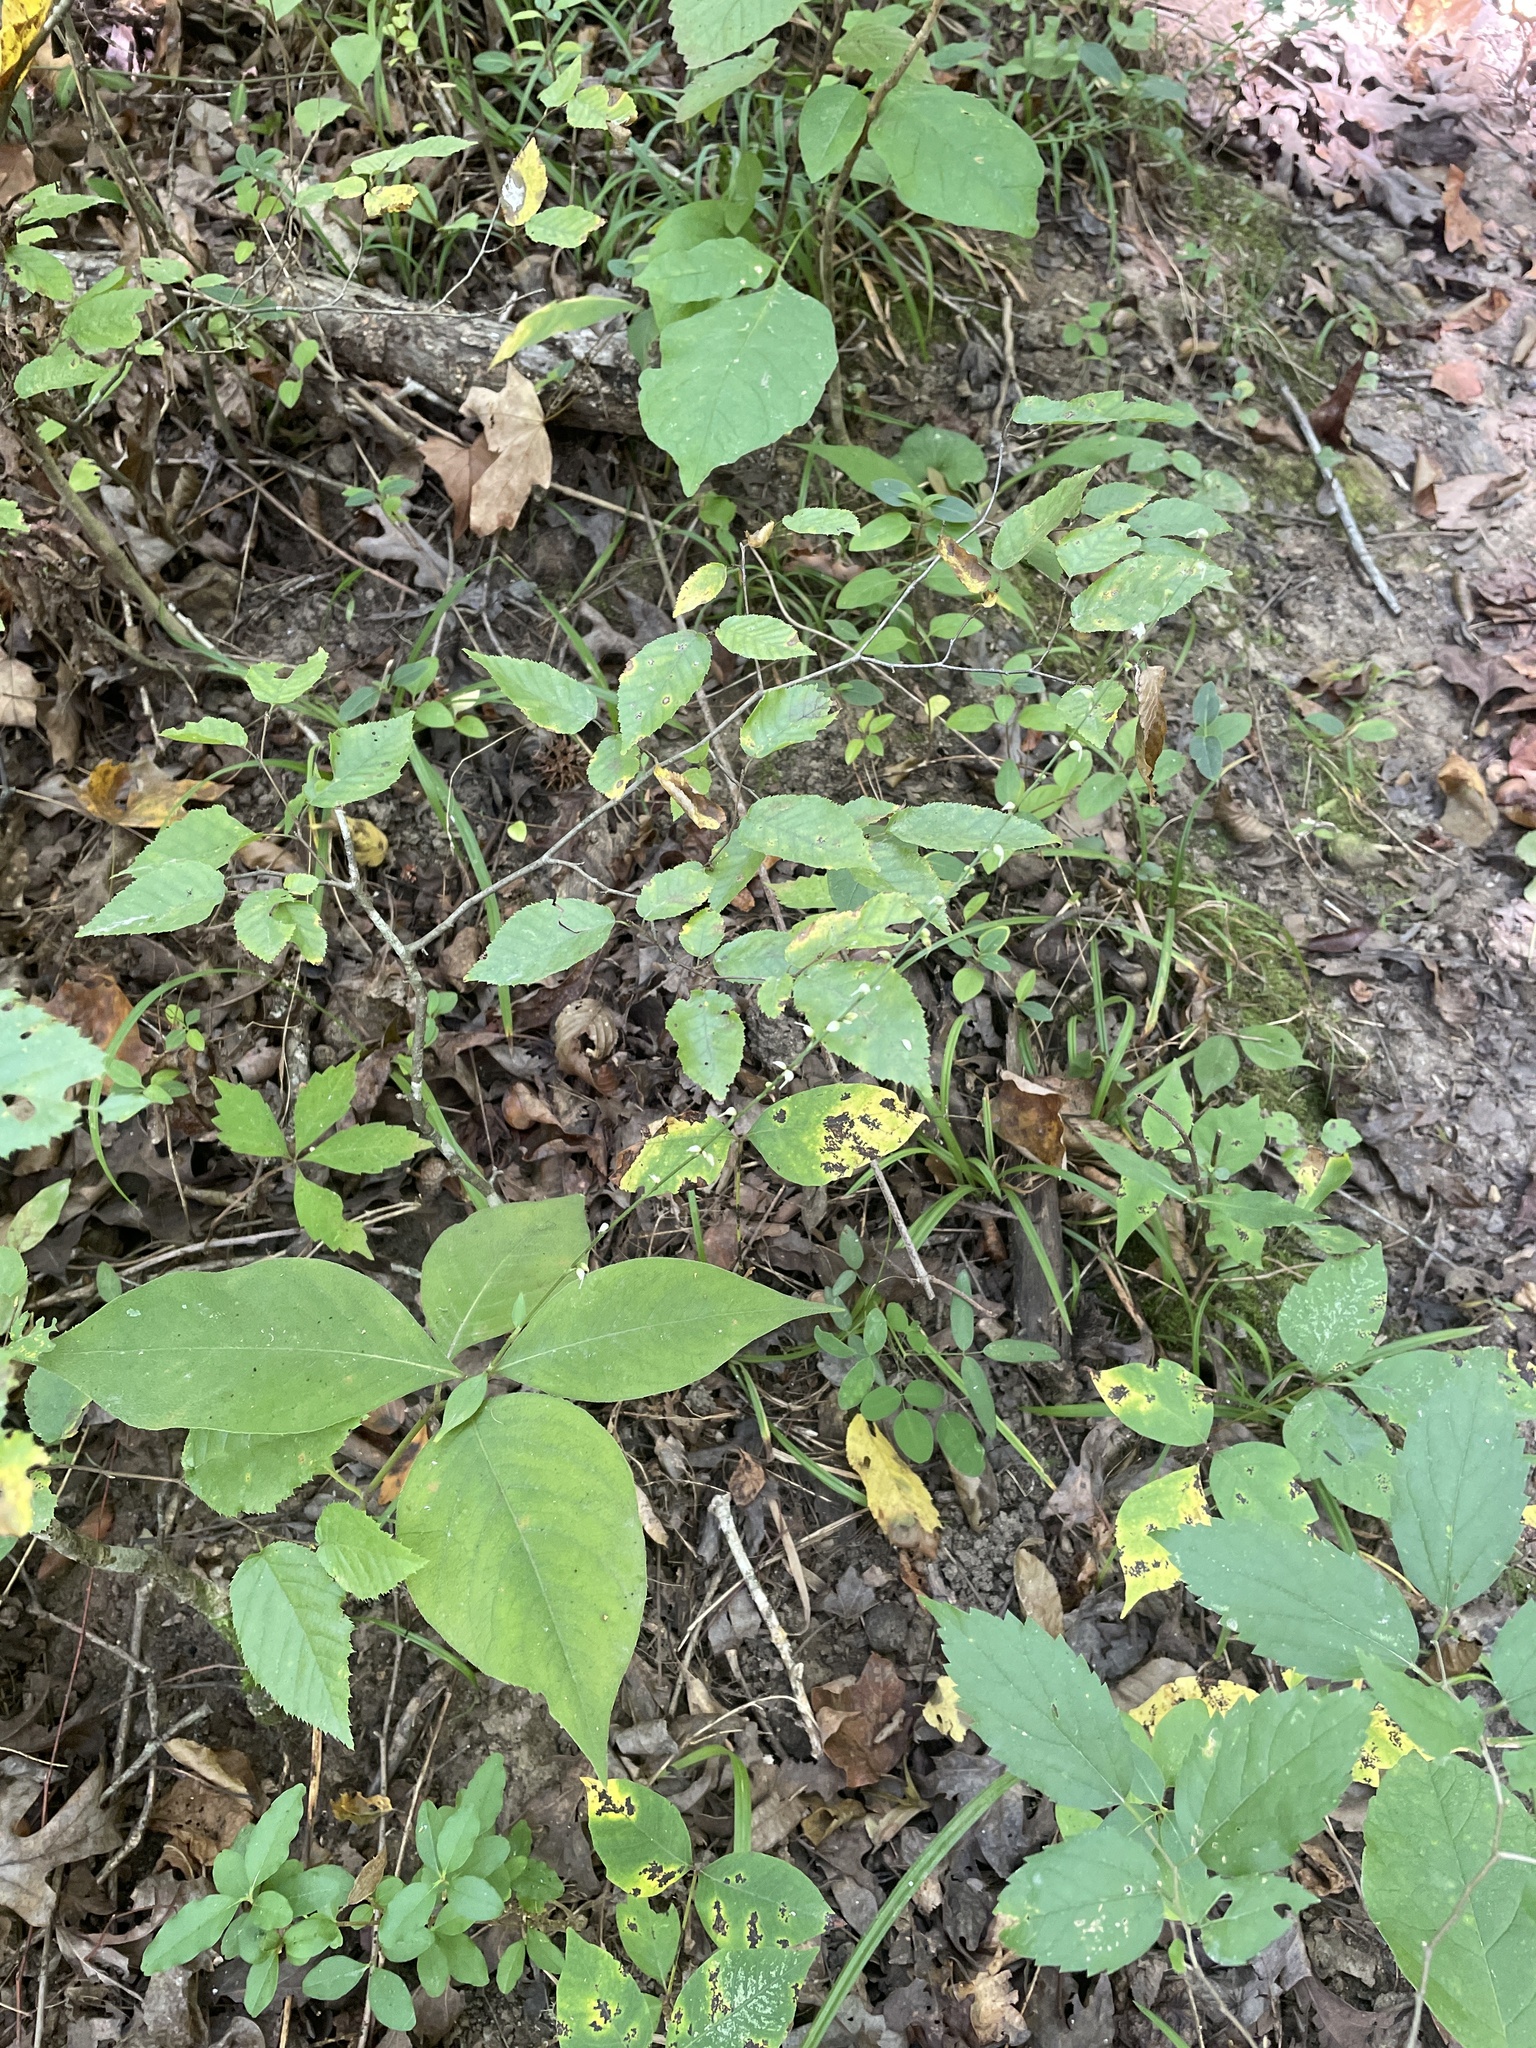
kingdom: Plantae
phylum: Tracheophyta
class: Magnoliopsida
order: Caryophyllales
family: Polygonaceae
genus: Persicaria
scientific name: Persicaria virginiana
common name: Jumpseed
